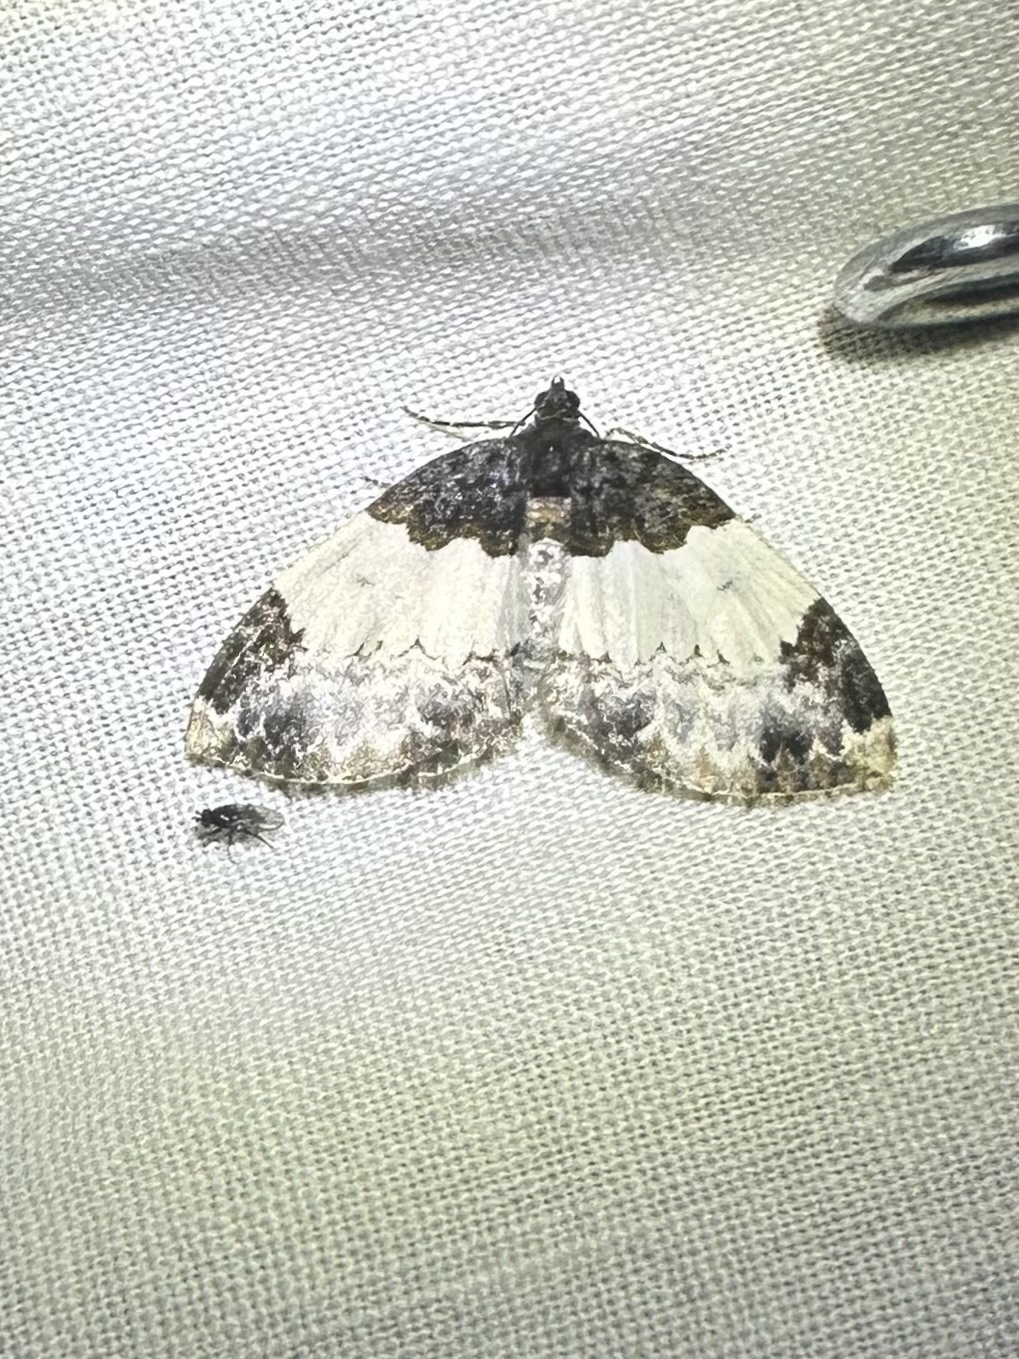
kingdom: Animalia
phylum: Arthropoda
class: Insecta
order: Lepidoptera
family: Geometridae
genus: Mesoleuca
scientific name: Mesoleuca ruficillata
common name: White-ribboned carpet moth
